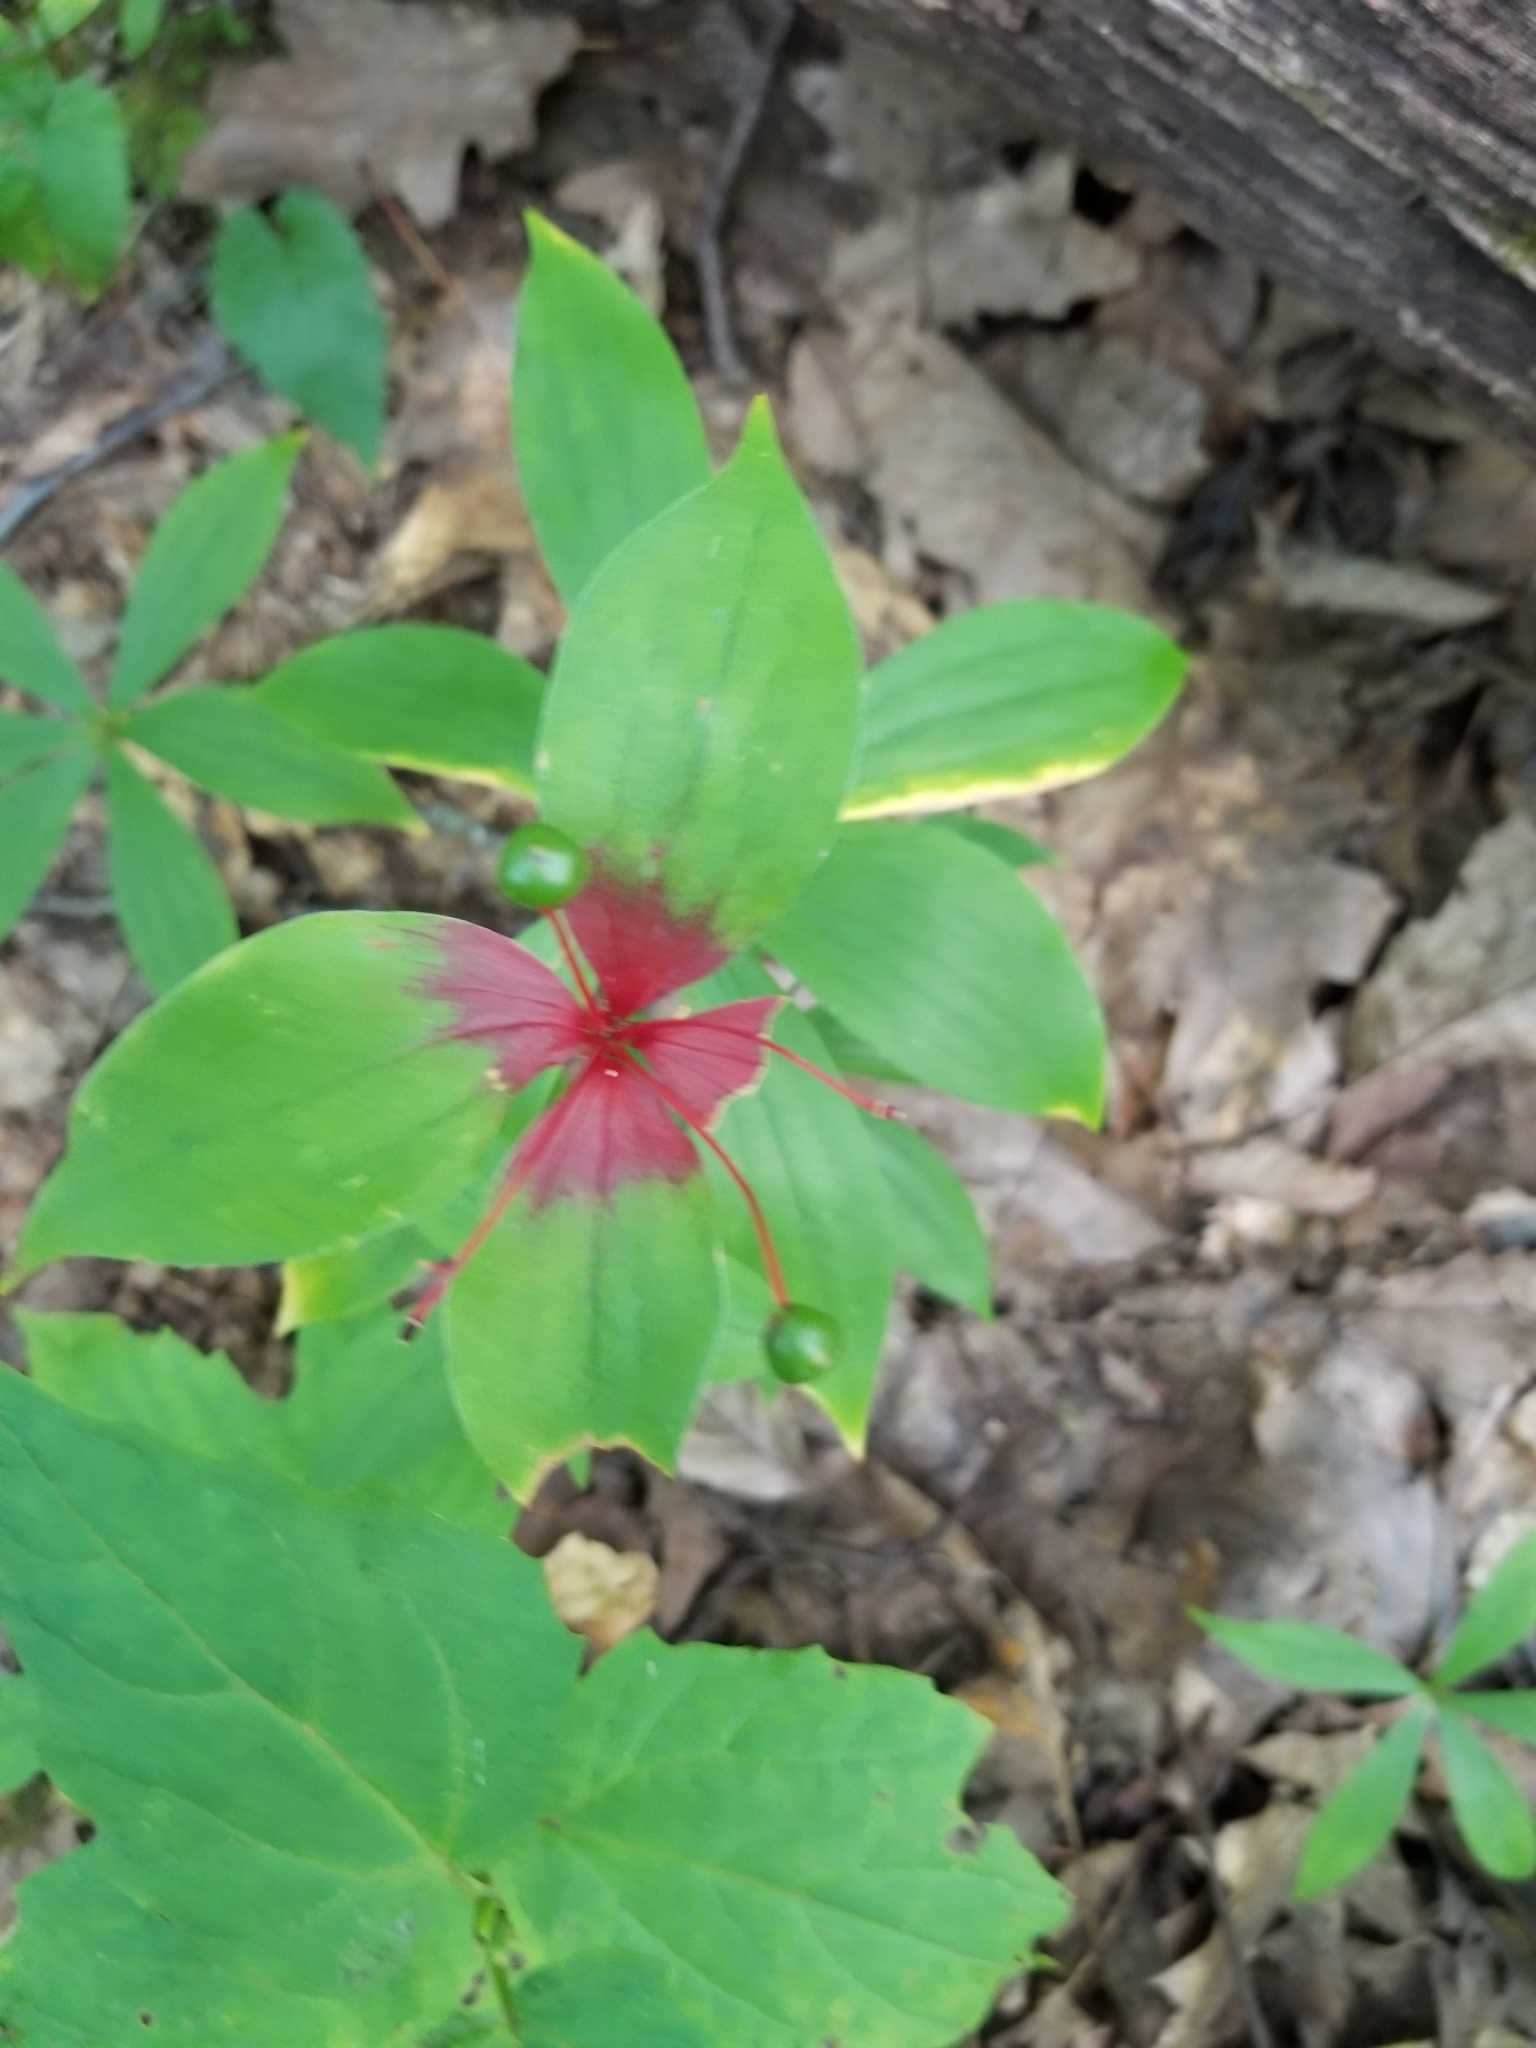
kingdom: Plantae
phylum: Tracheophyta
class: Liliopsida
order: Liliales
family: Liliaceae
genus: Medeola
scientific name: Medeola virginiana
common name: Indian cucumber-root
